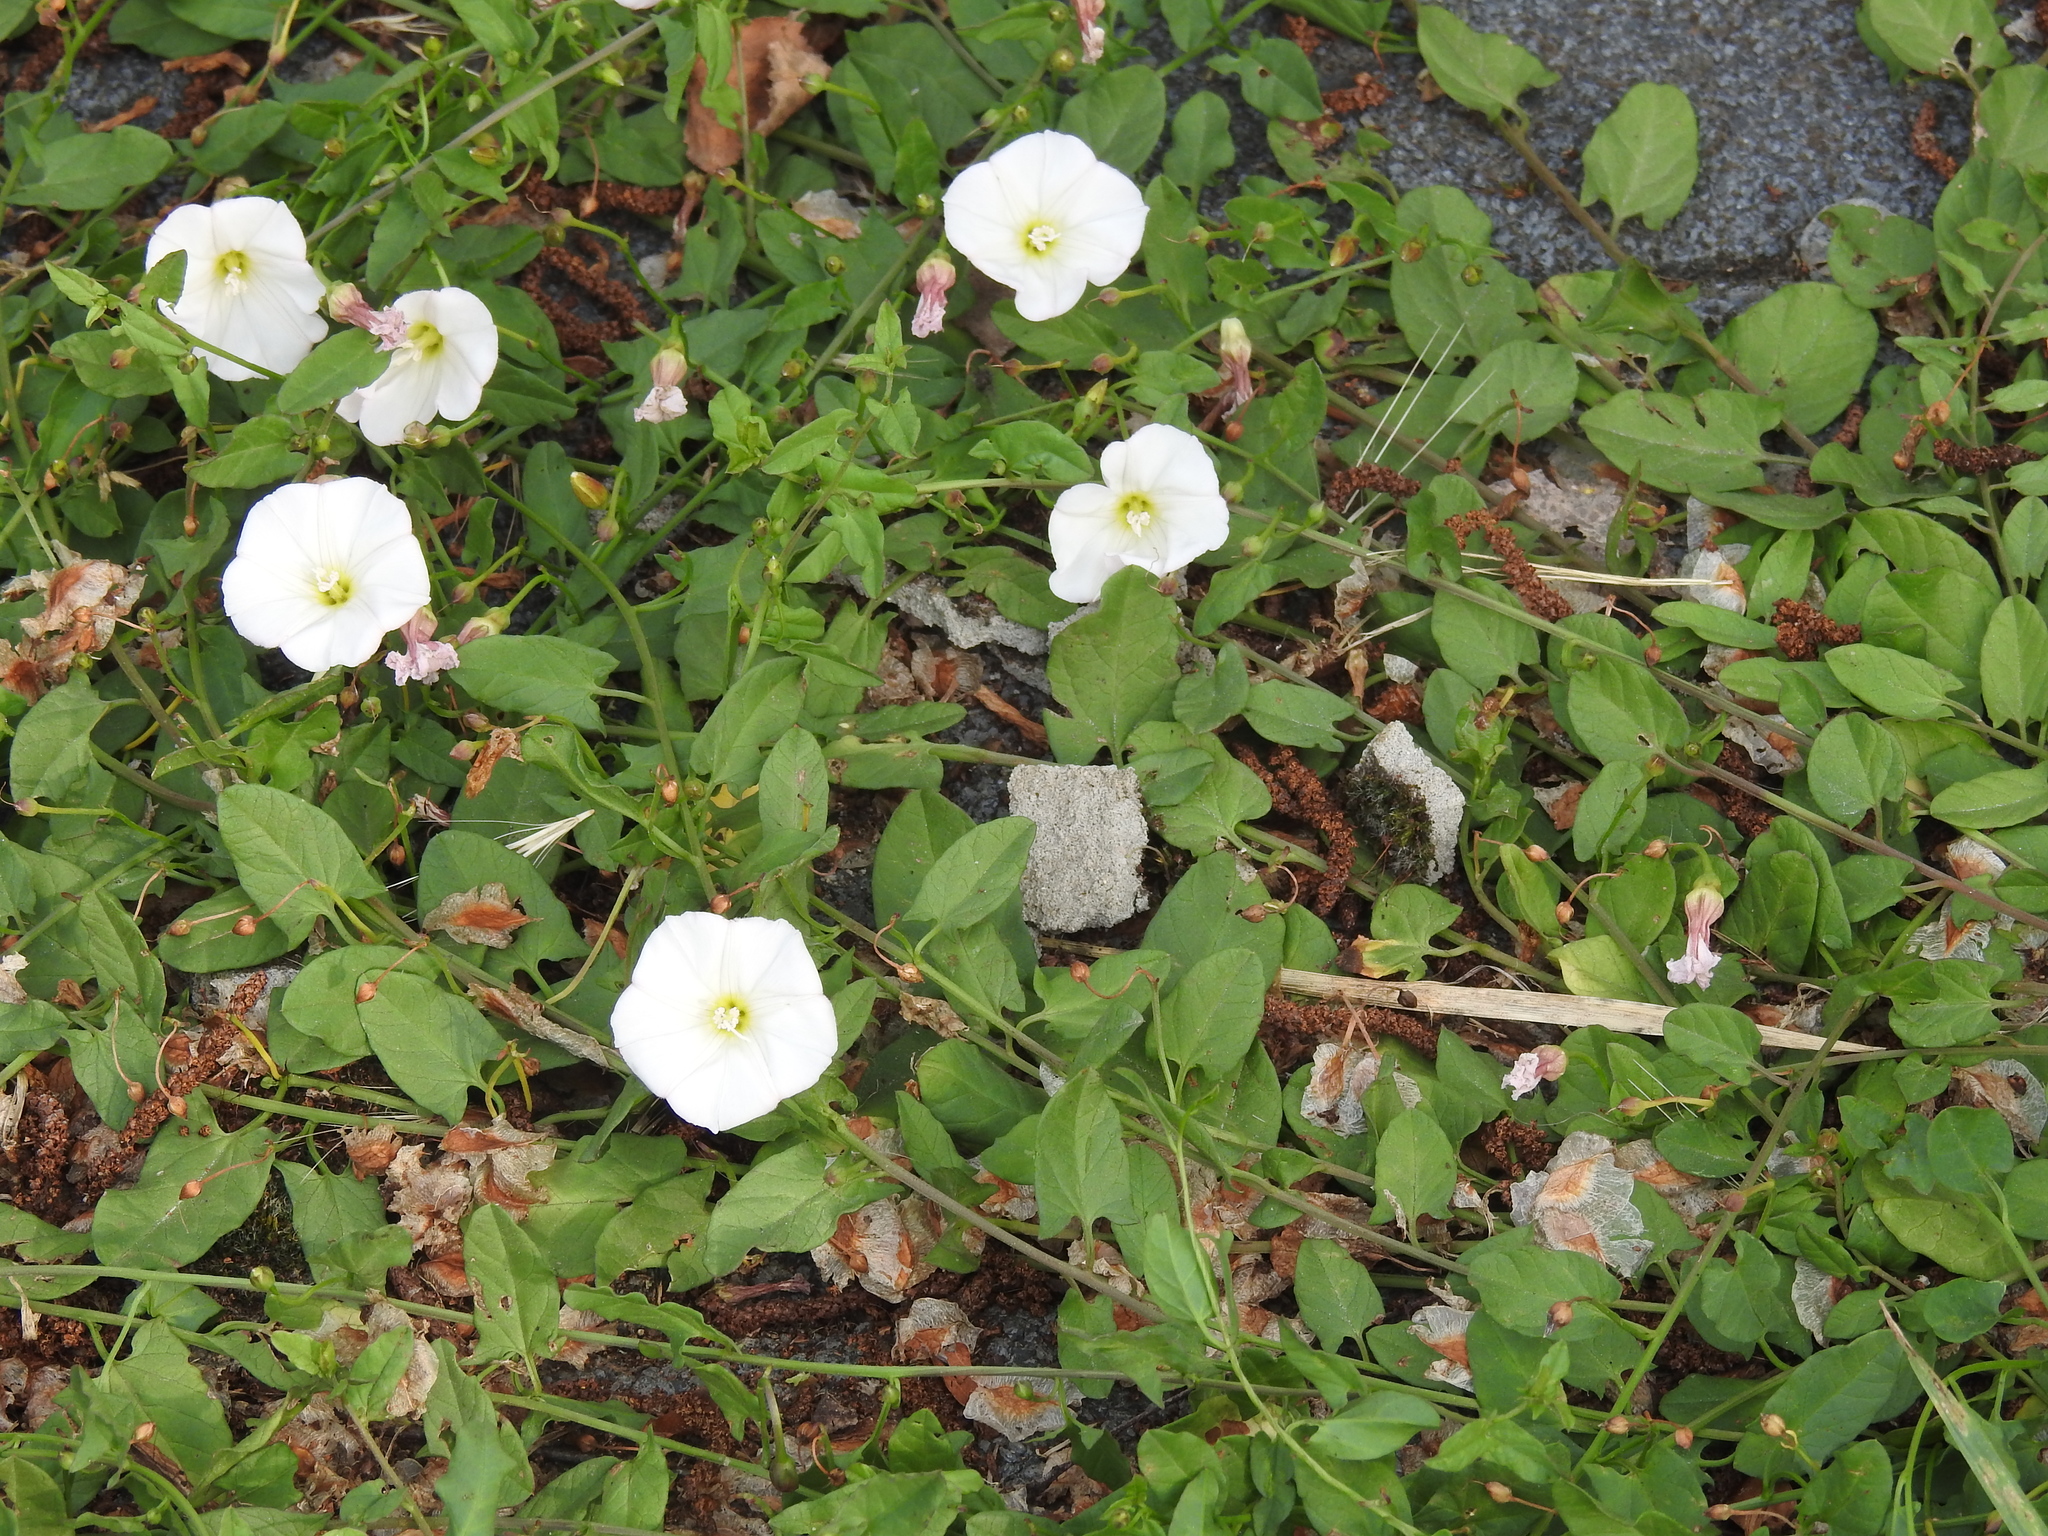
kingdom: Plantae
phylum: Tracheophyta
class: Magnoliopsida
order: Solanales
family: Convolvulaceae
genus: Convolvulus
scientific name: Convolvulus arvensis
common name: Field bindweed
